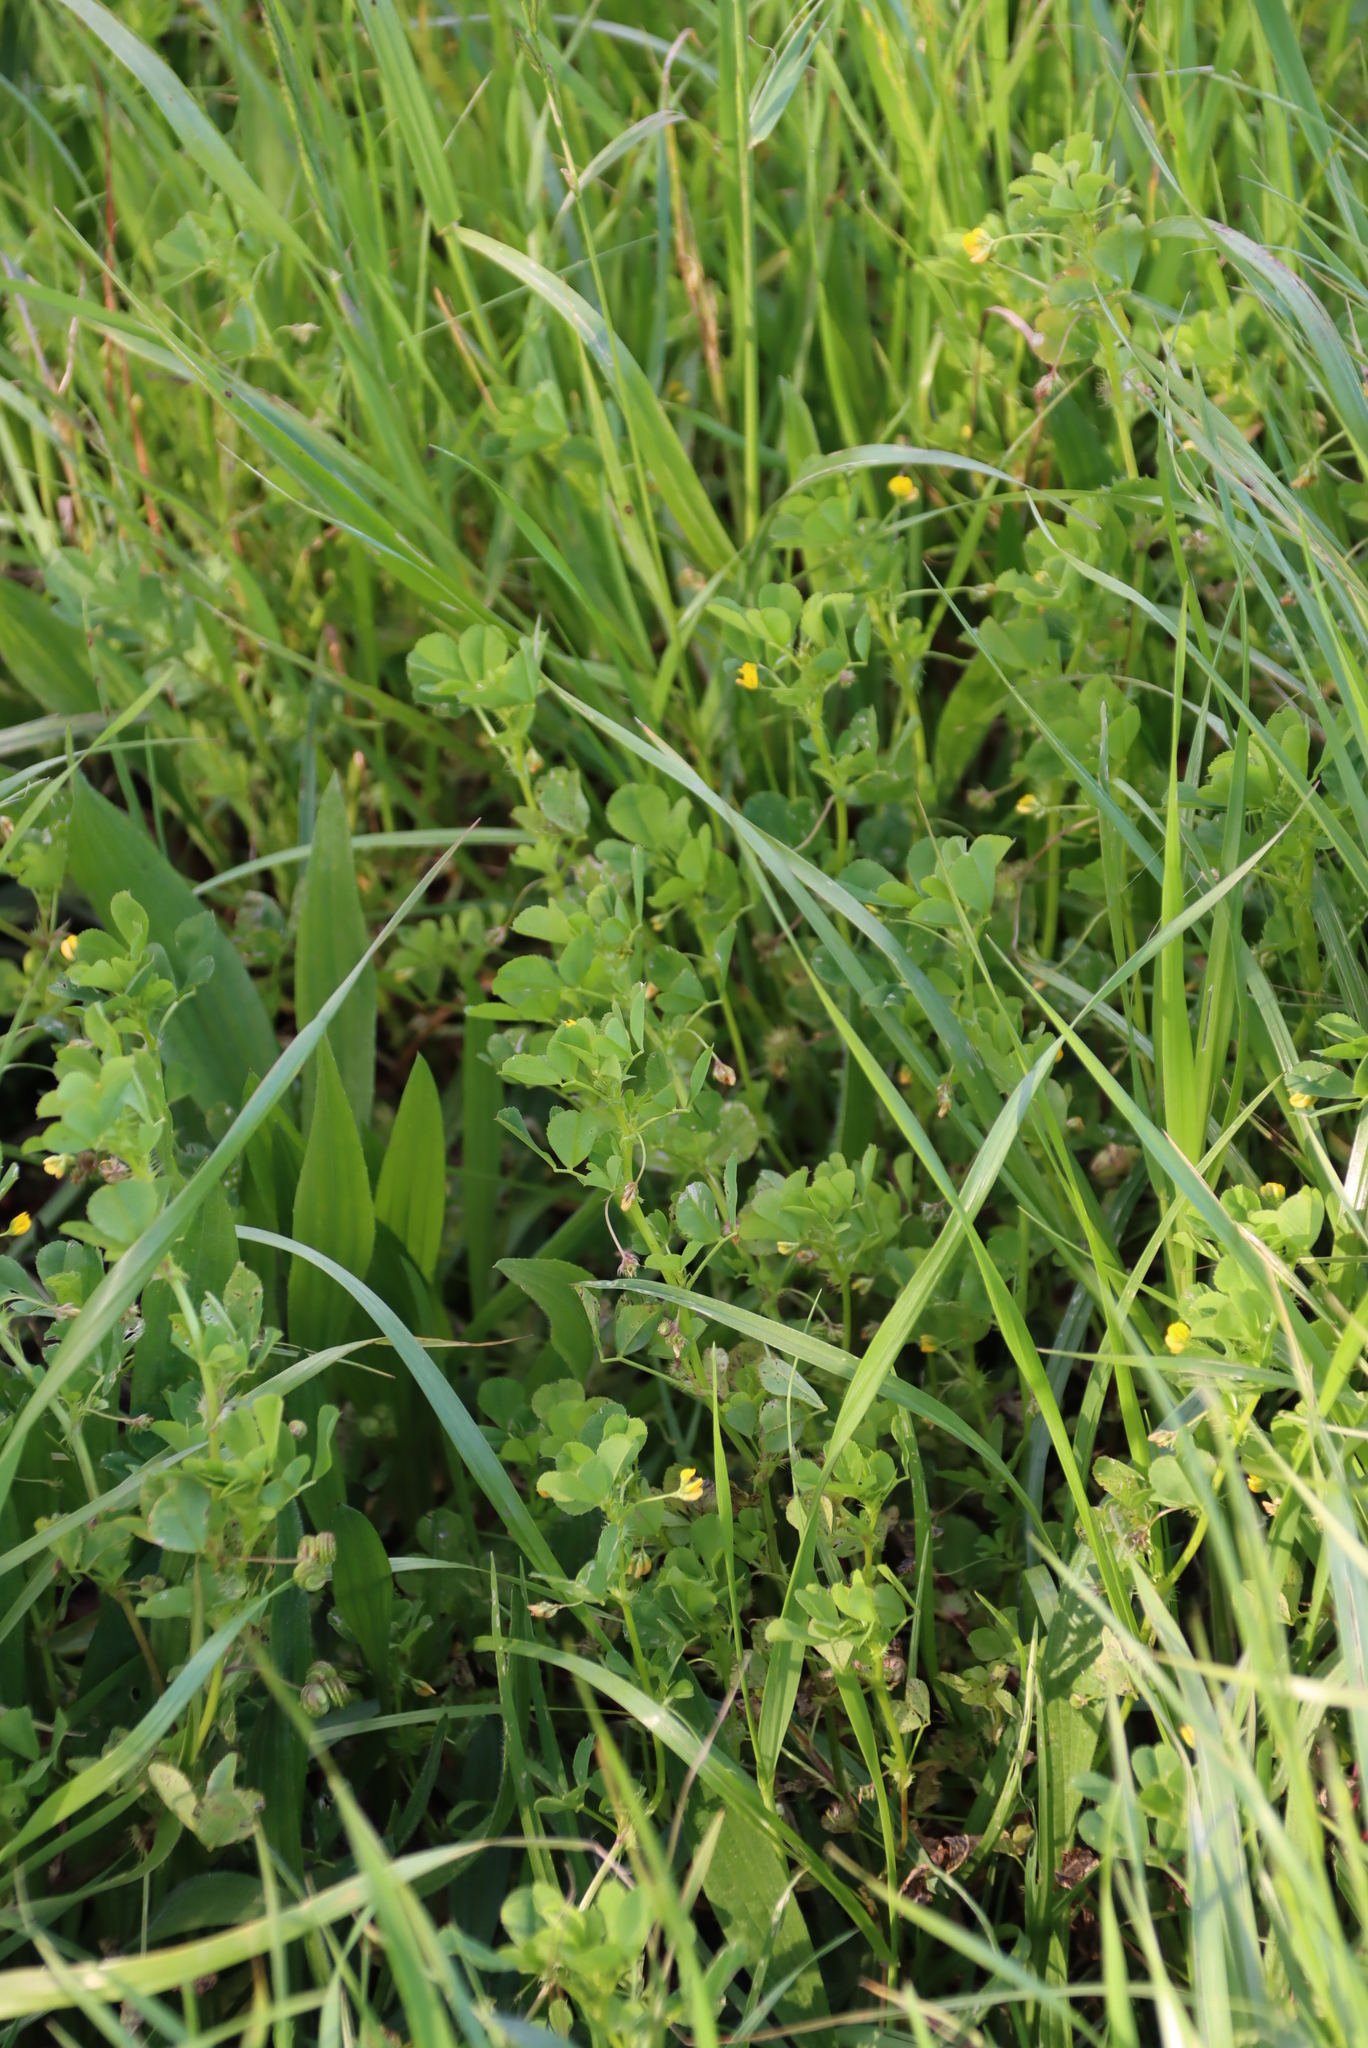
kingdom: Plantae
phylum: Tracheophyta
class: Magnoliopsida
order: Fabales
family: Fabaceae
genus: Medicago
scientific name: Medicago polymorpha
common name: Burclover
